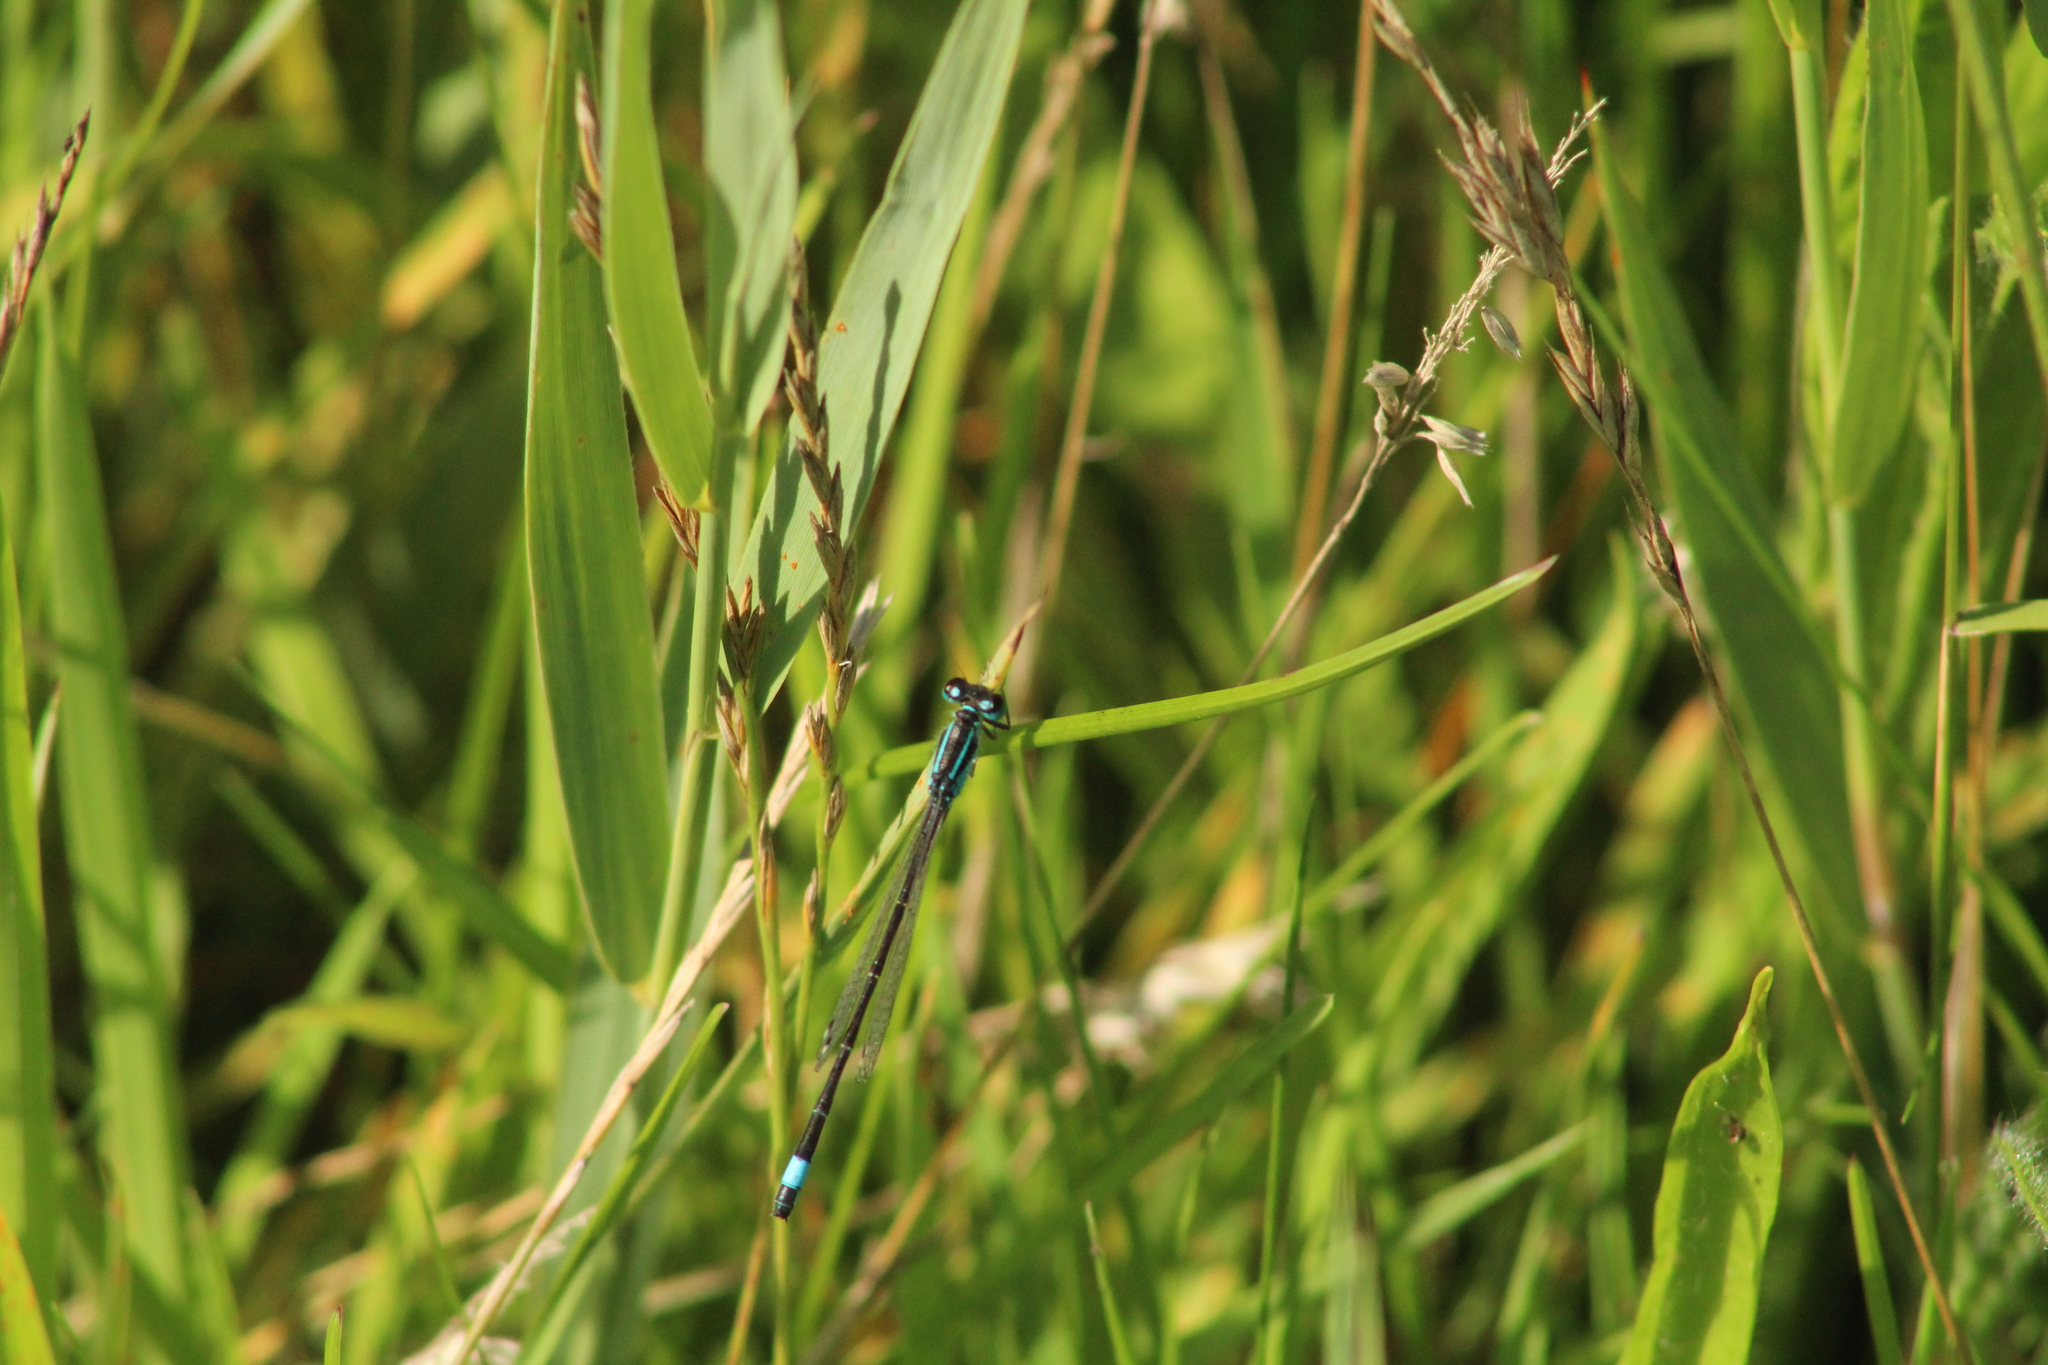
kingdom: Animalia
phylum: Arthropoda
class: Insecta
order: Odonata
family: Coenagrionidae
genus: Ischnura
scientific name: Ischnura elegans
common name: Blue-tailed damselfly
